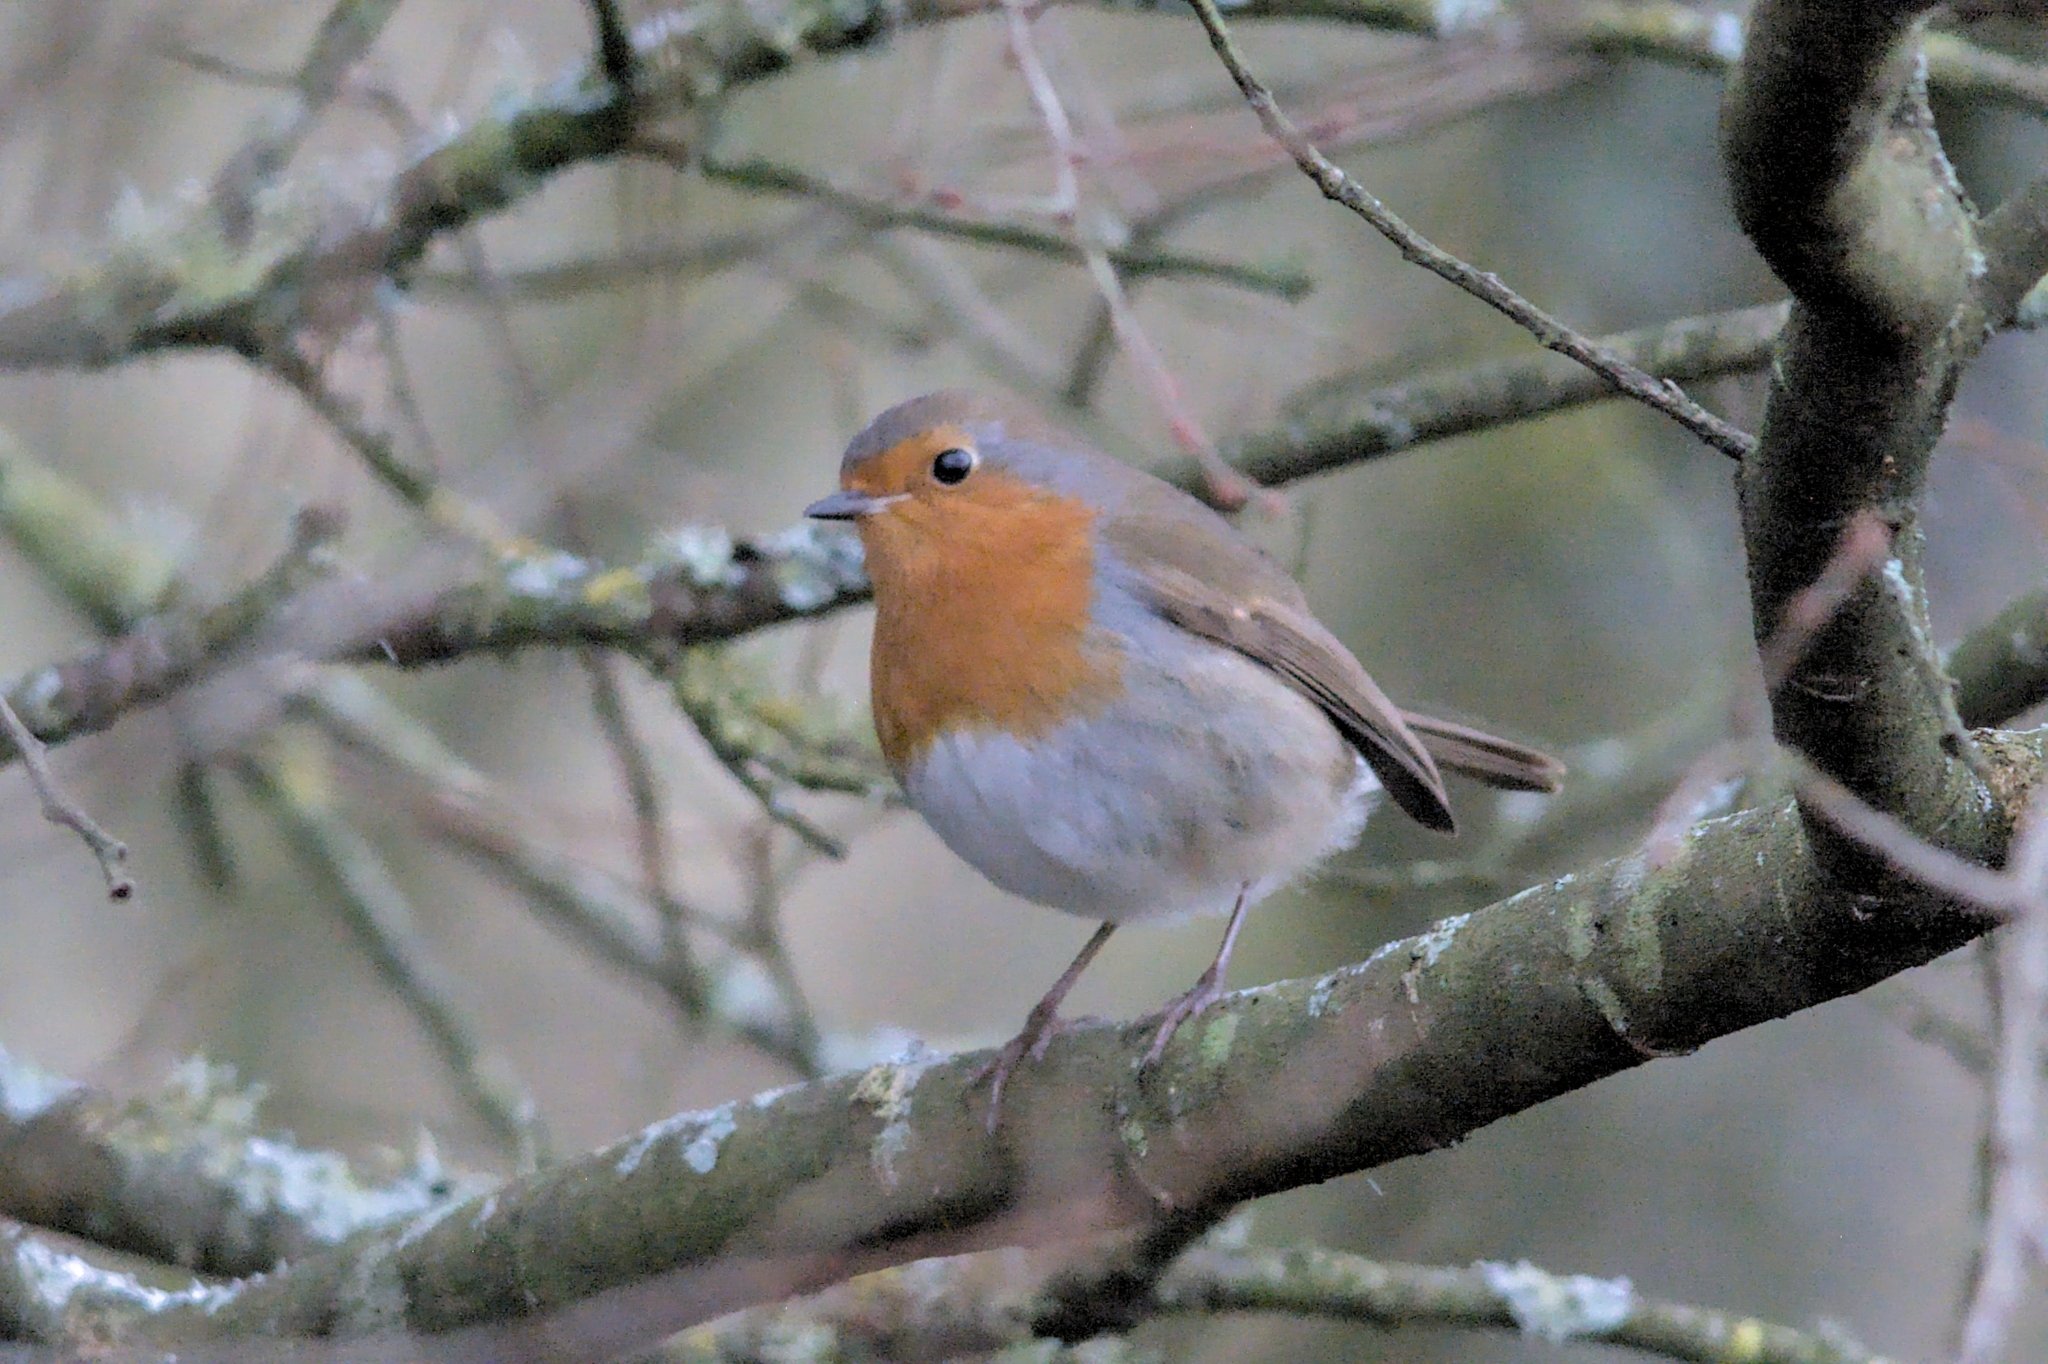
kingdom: Animalia
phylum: Chordata
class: Aves
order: Passeriformes
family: Muscicapidae
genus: Erithacus
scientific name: Erithacus rubecula
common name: European robin
